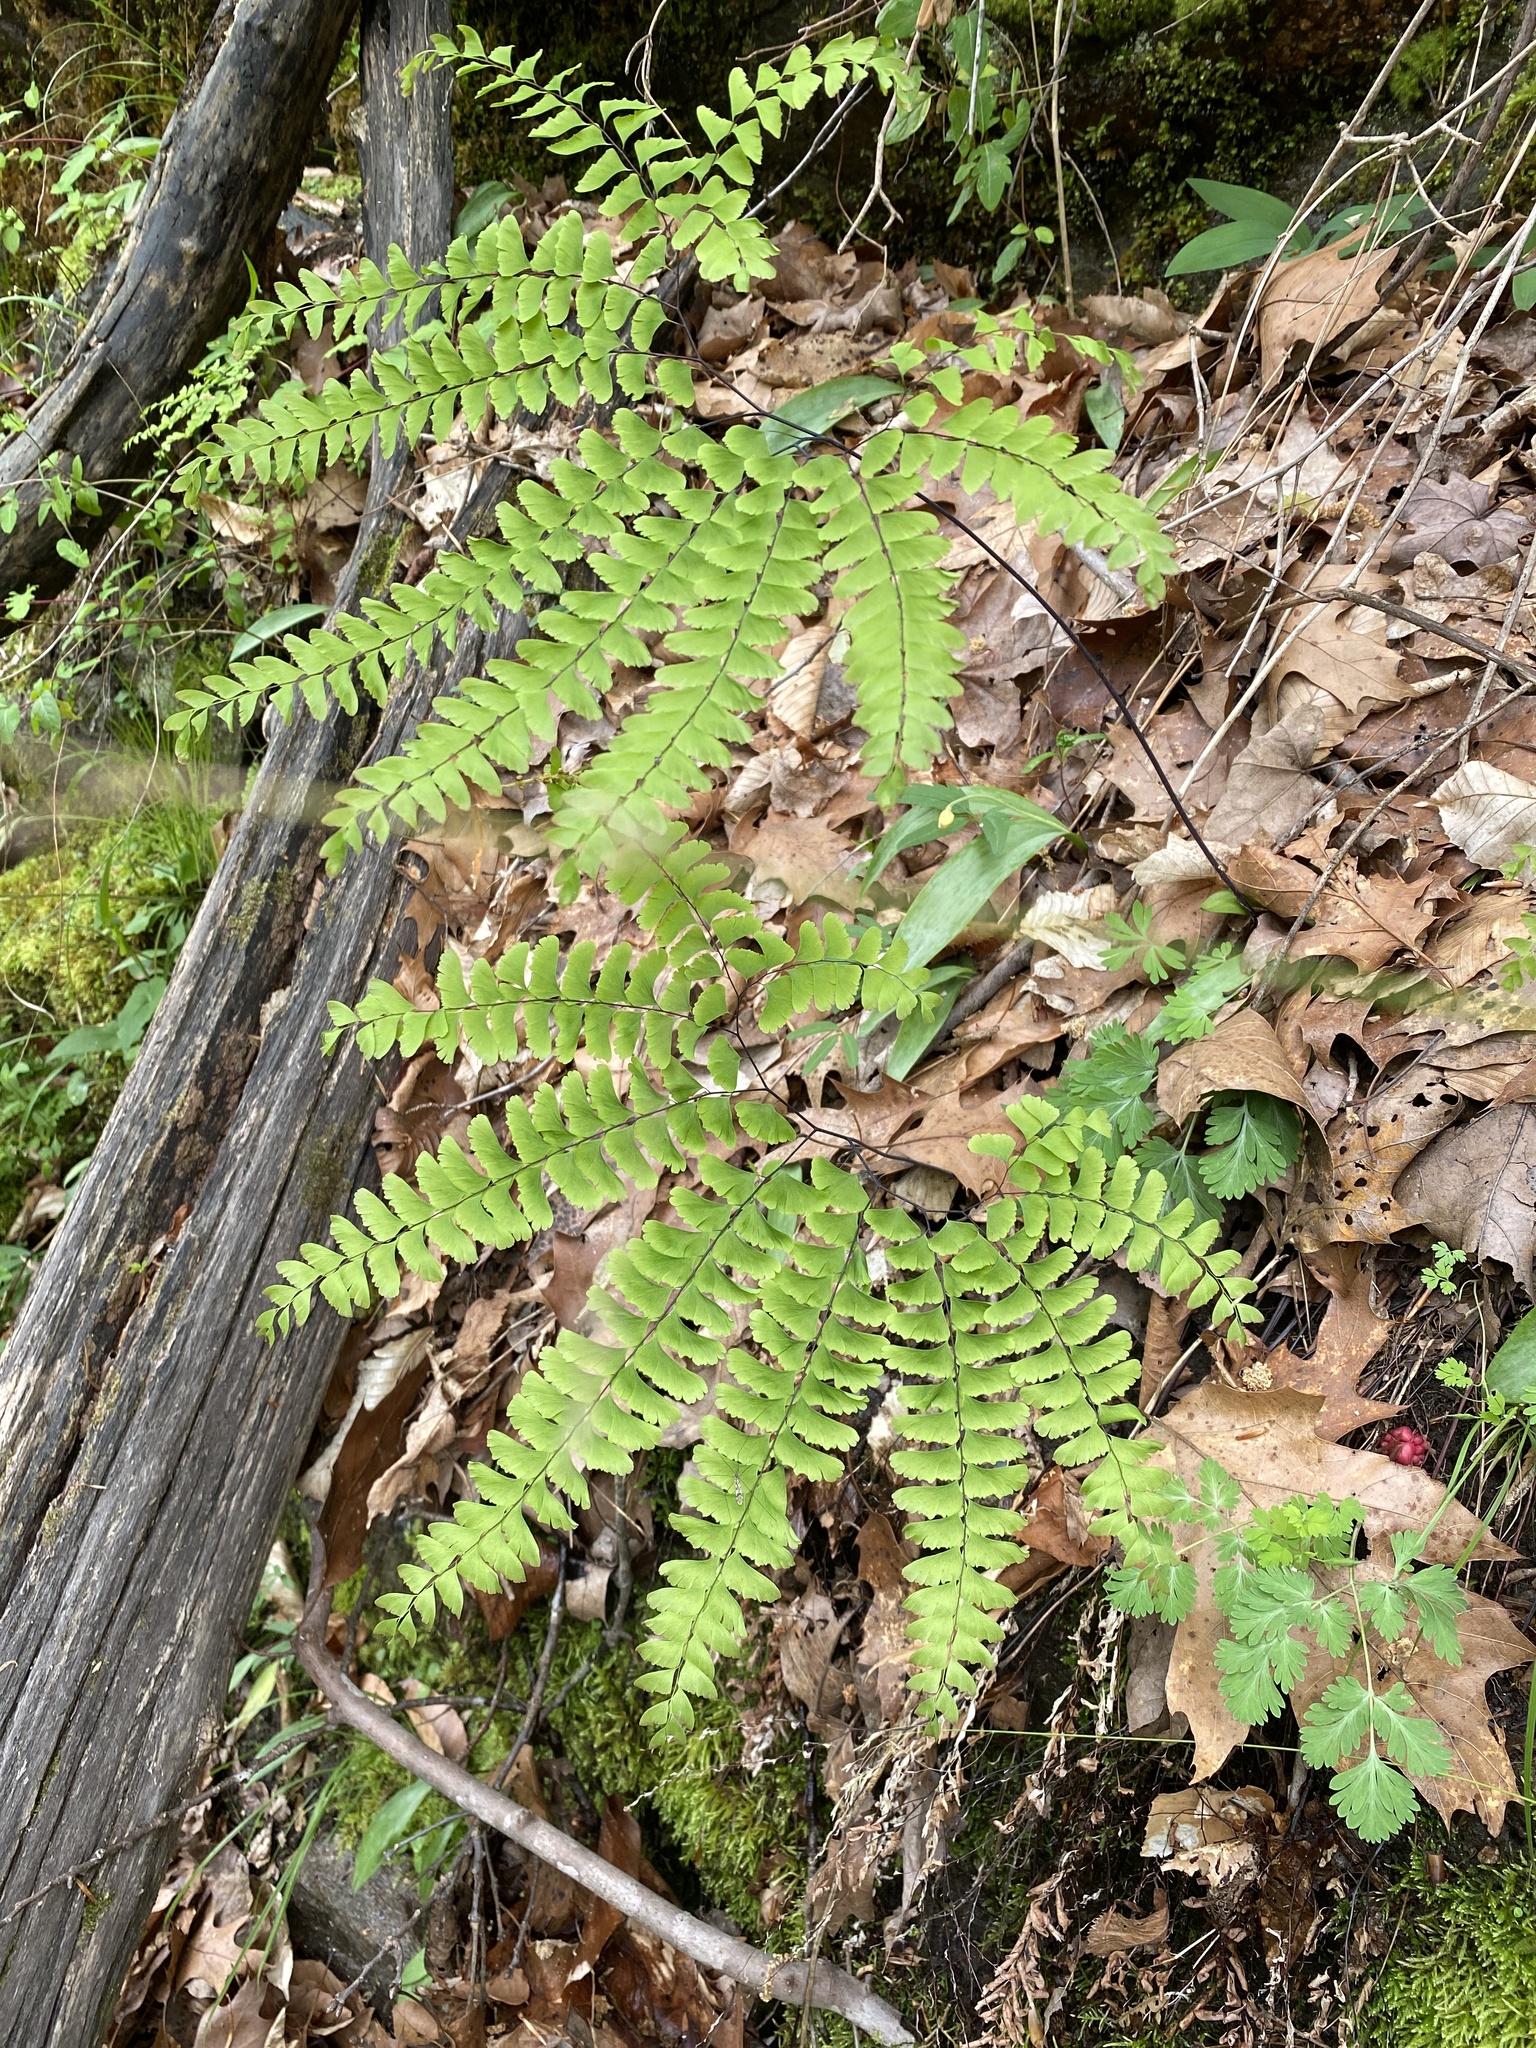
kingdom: Plantae
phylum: Tracheophyta
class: Polypodiopsida
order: Polypodiales
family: Pteridaceae
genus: Adiantum
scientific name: Adiantum pedatum
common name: Five-finger fern
